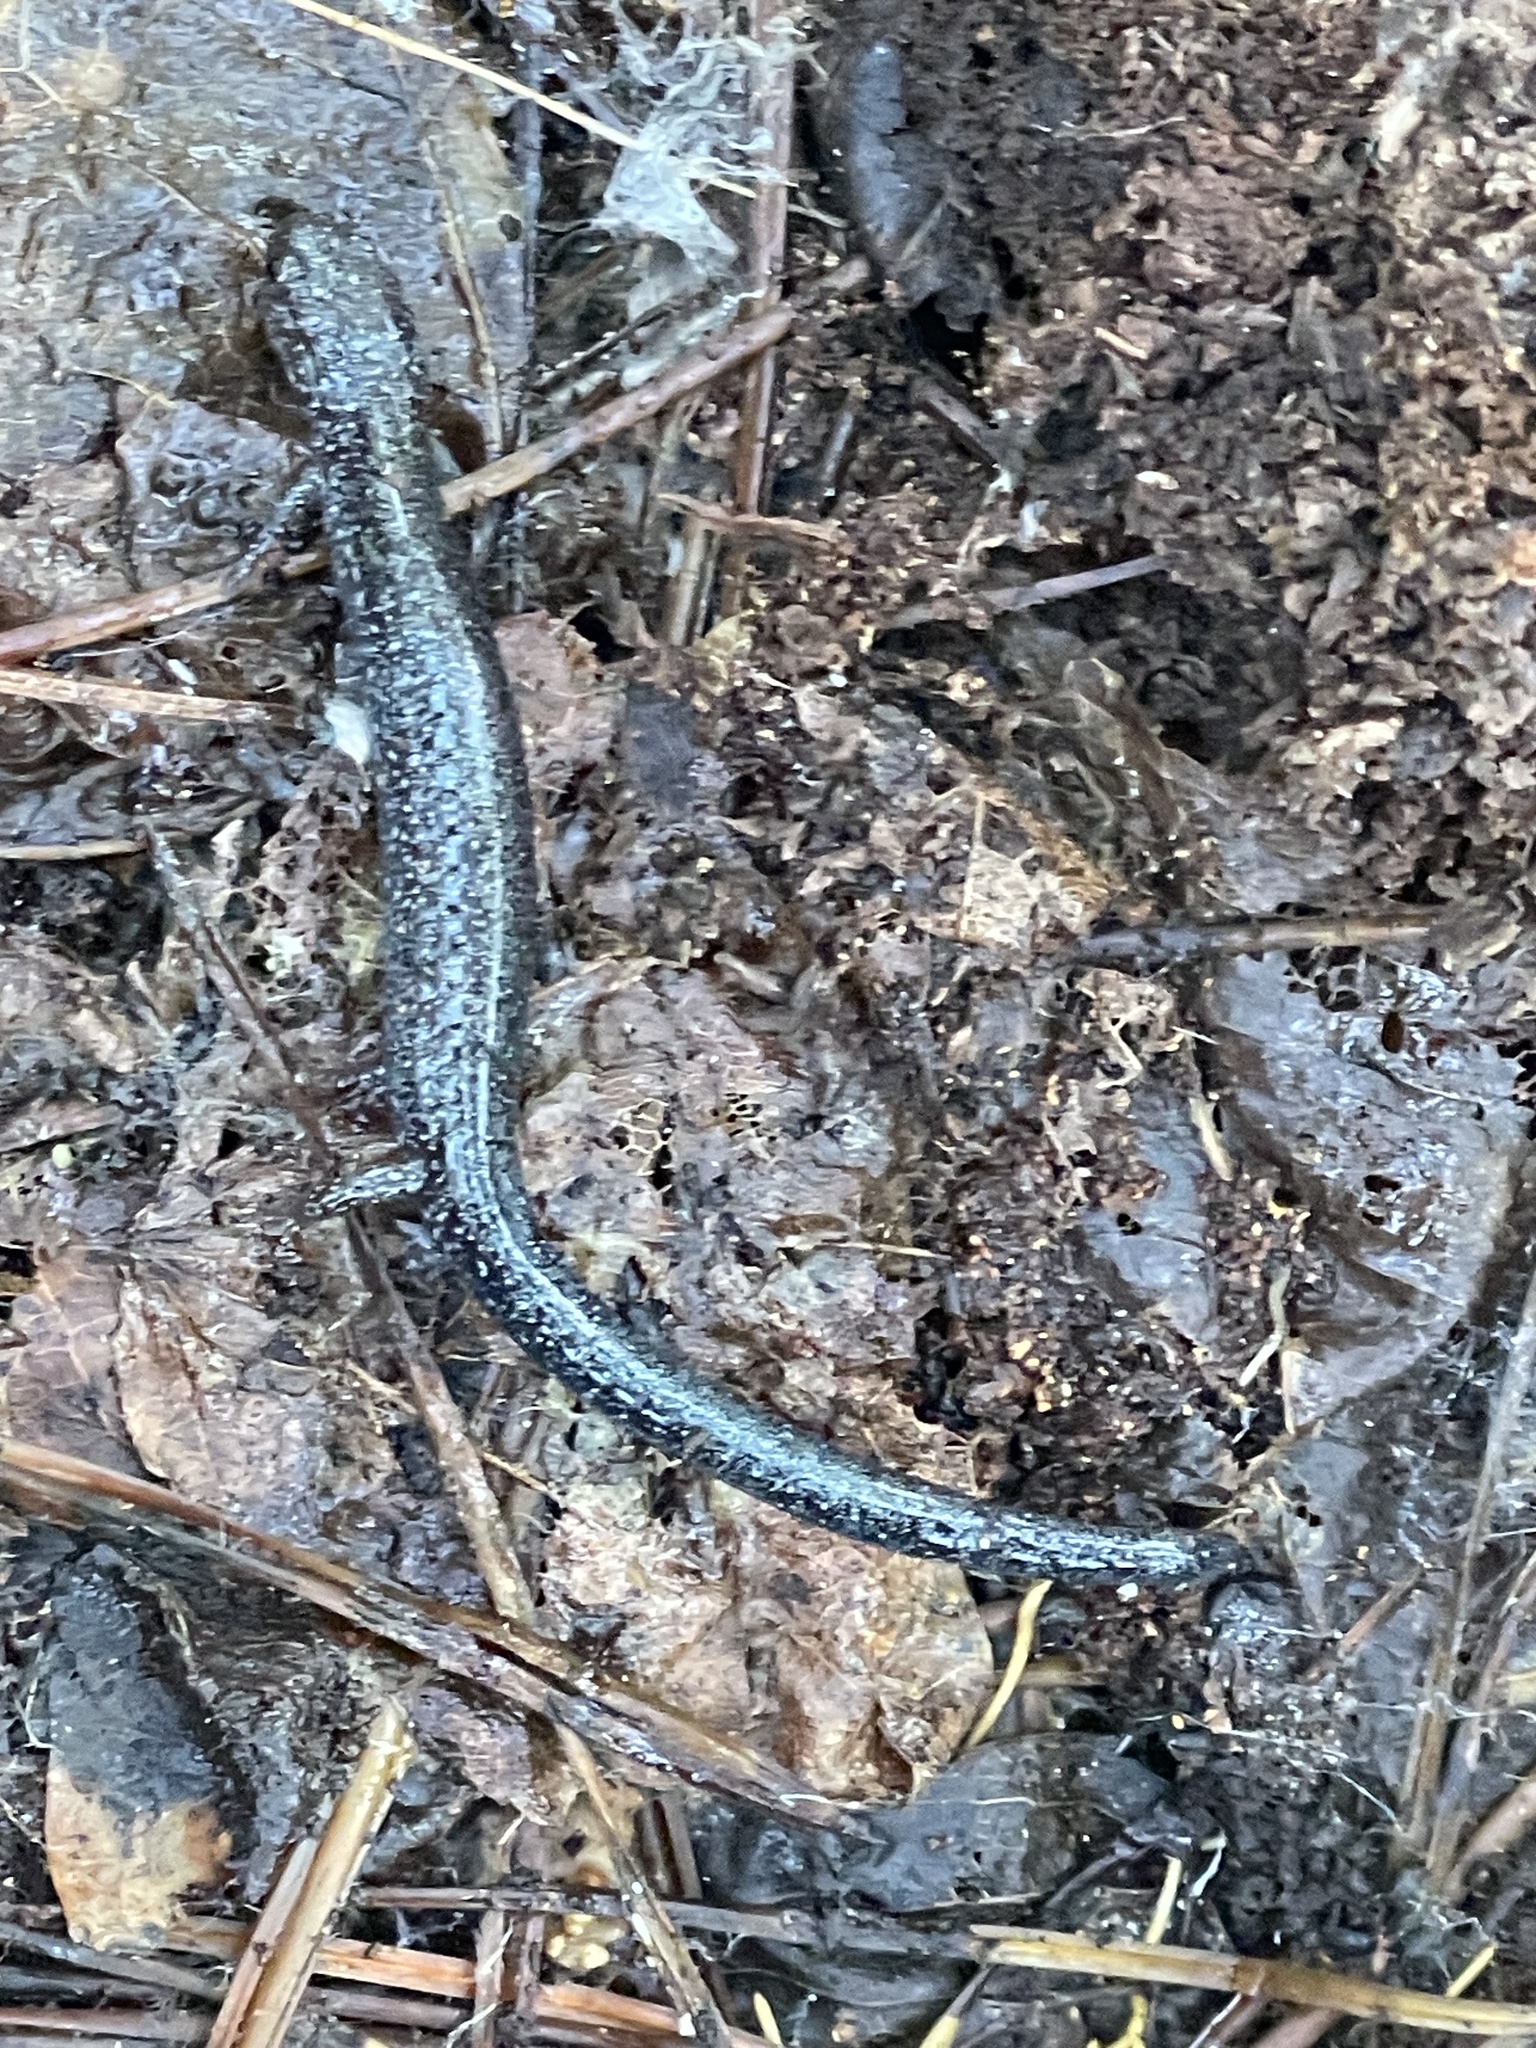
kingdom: Animalia
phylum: Chordata
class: Amphibia
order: Caudata
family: Plethodontidae
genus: Plethodon
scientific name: Plethodon cinereus
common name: Redback salamander
